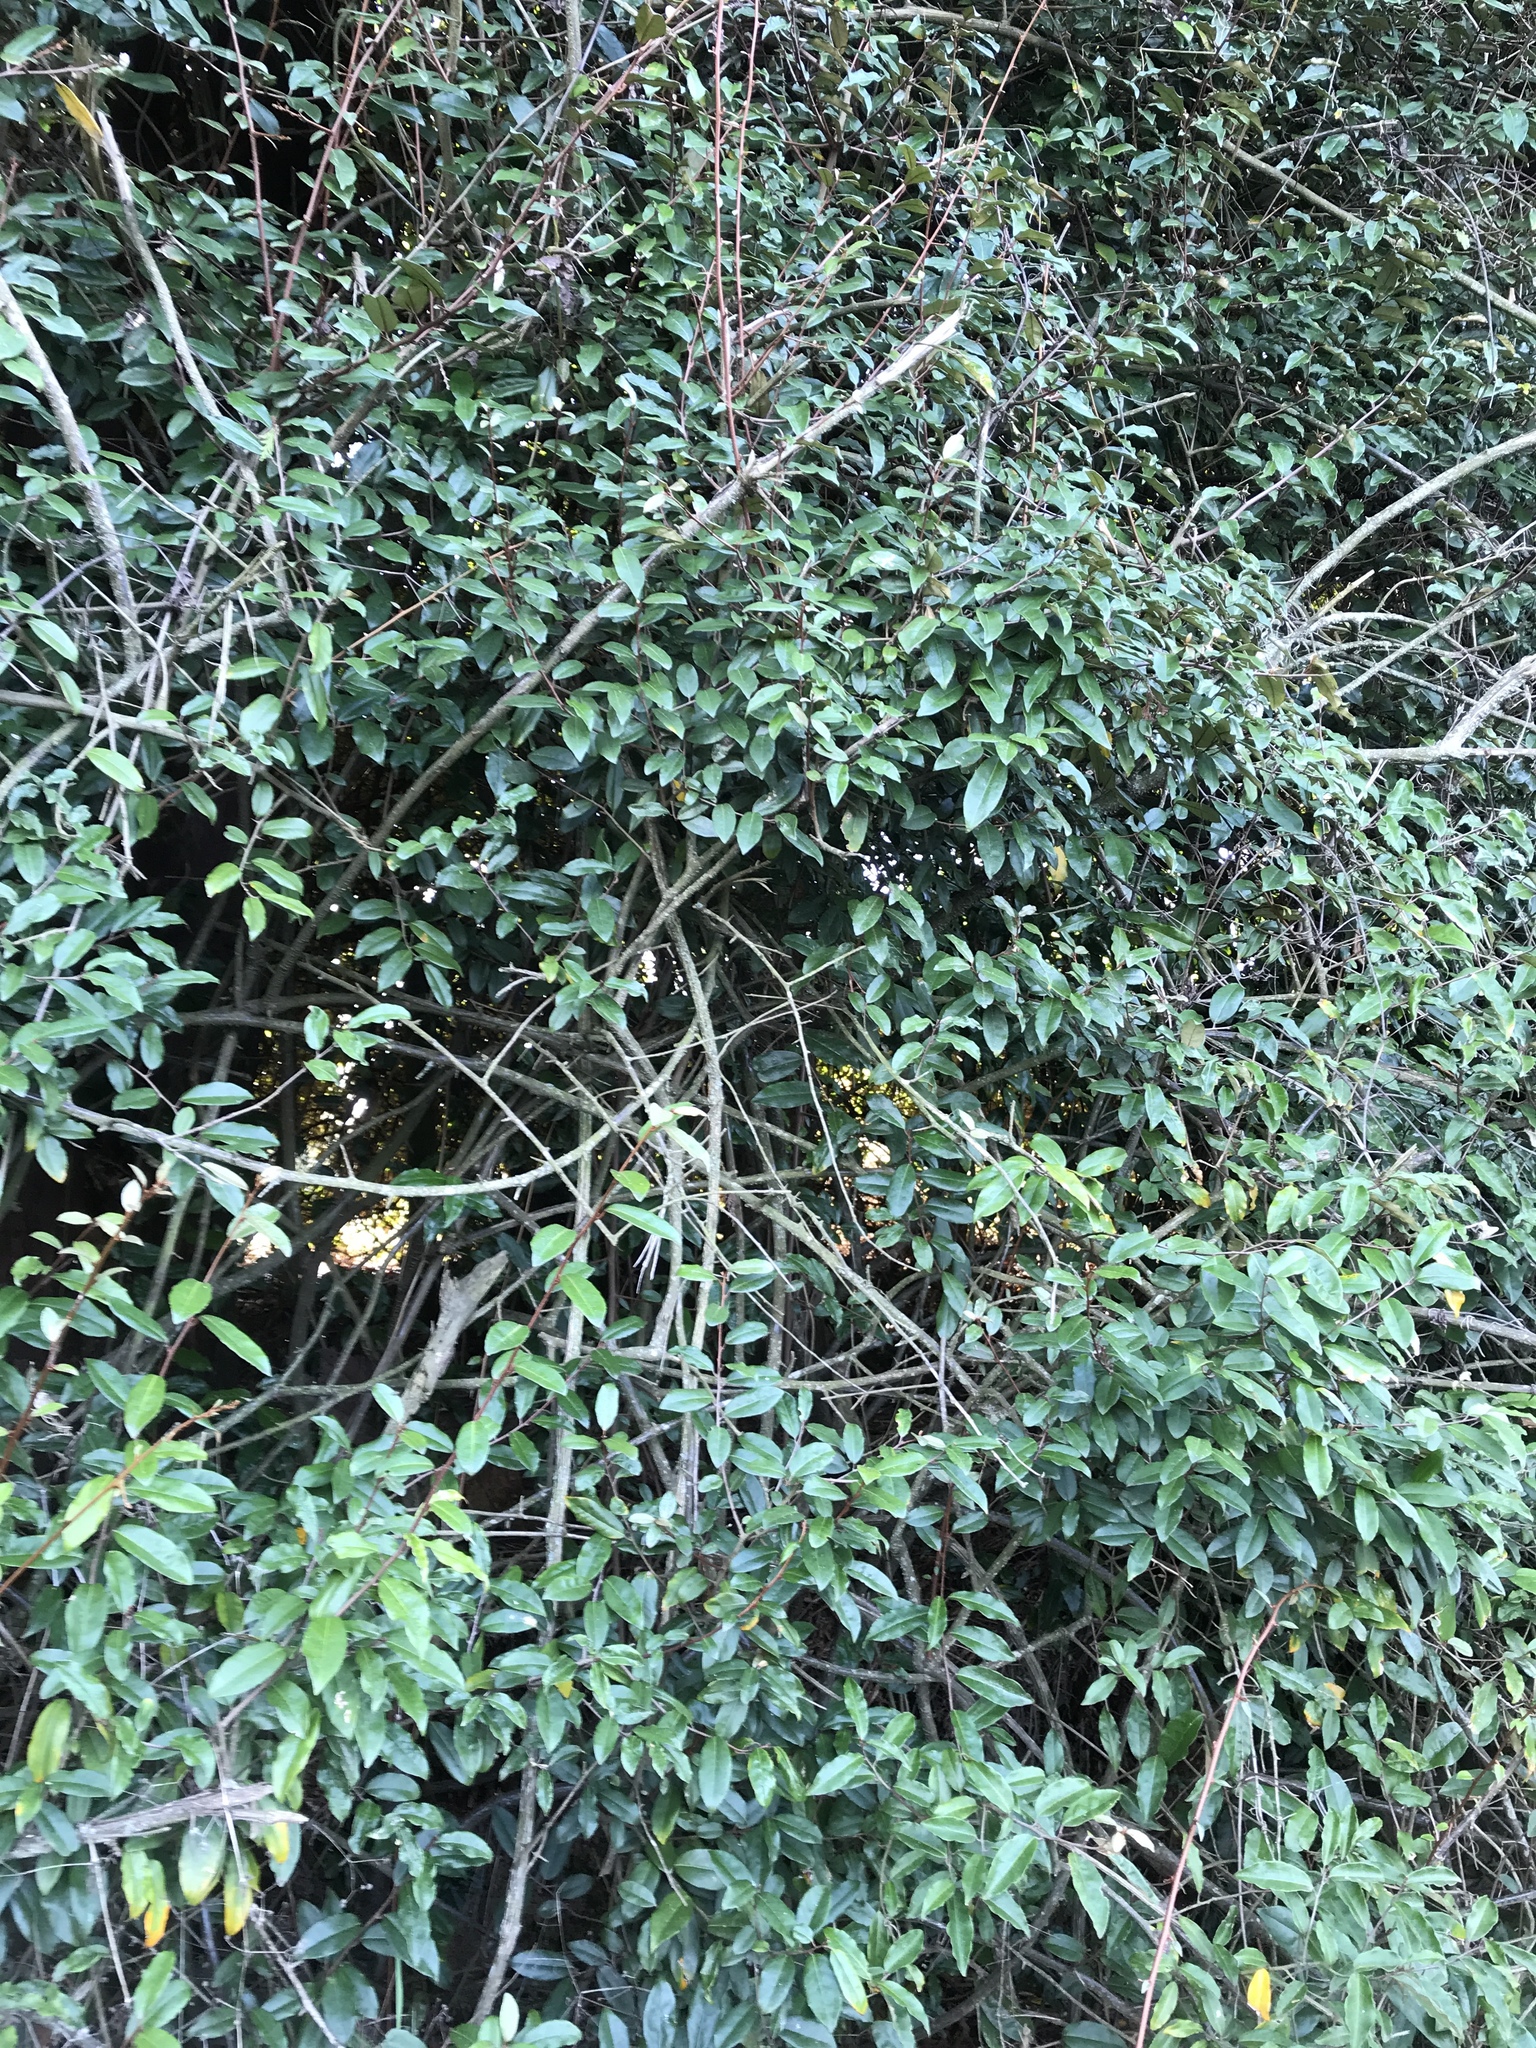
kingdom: Plantae
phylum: Tracheophyta
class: Magnoliopsida
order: Rosales
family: Elaeagnaceae
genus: Elaeagnus
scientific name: Elaeagnus reflexa
